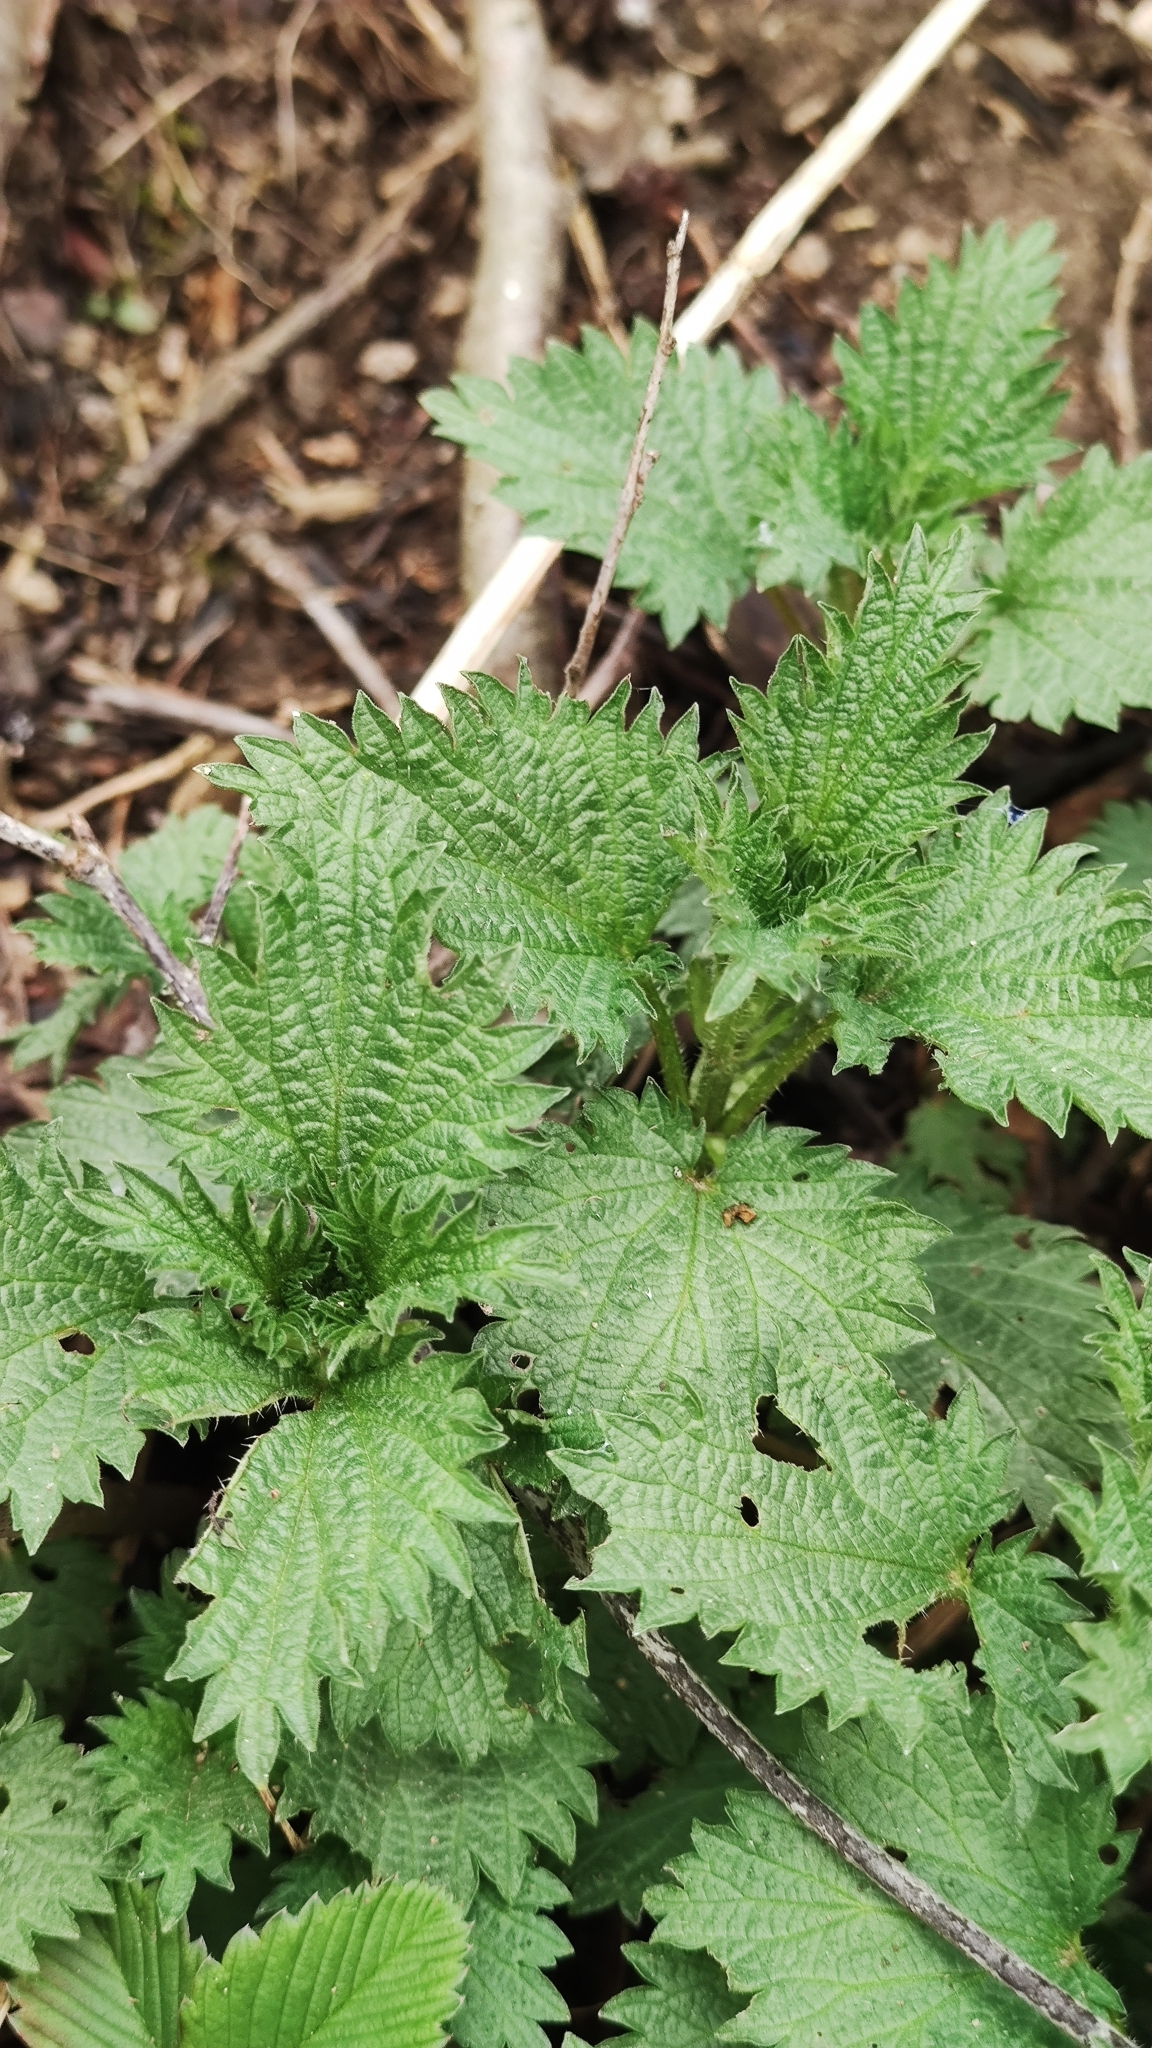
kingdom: Plantae
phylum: Tracheophyta
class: Magnoliopsida
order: Rosales
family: Urticaceae
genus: Urtica
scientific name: Urtica dioica
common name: Common nettle
